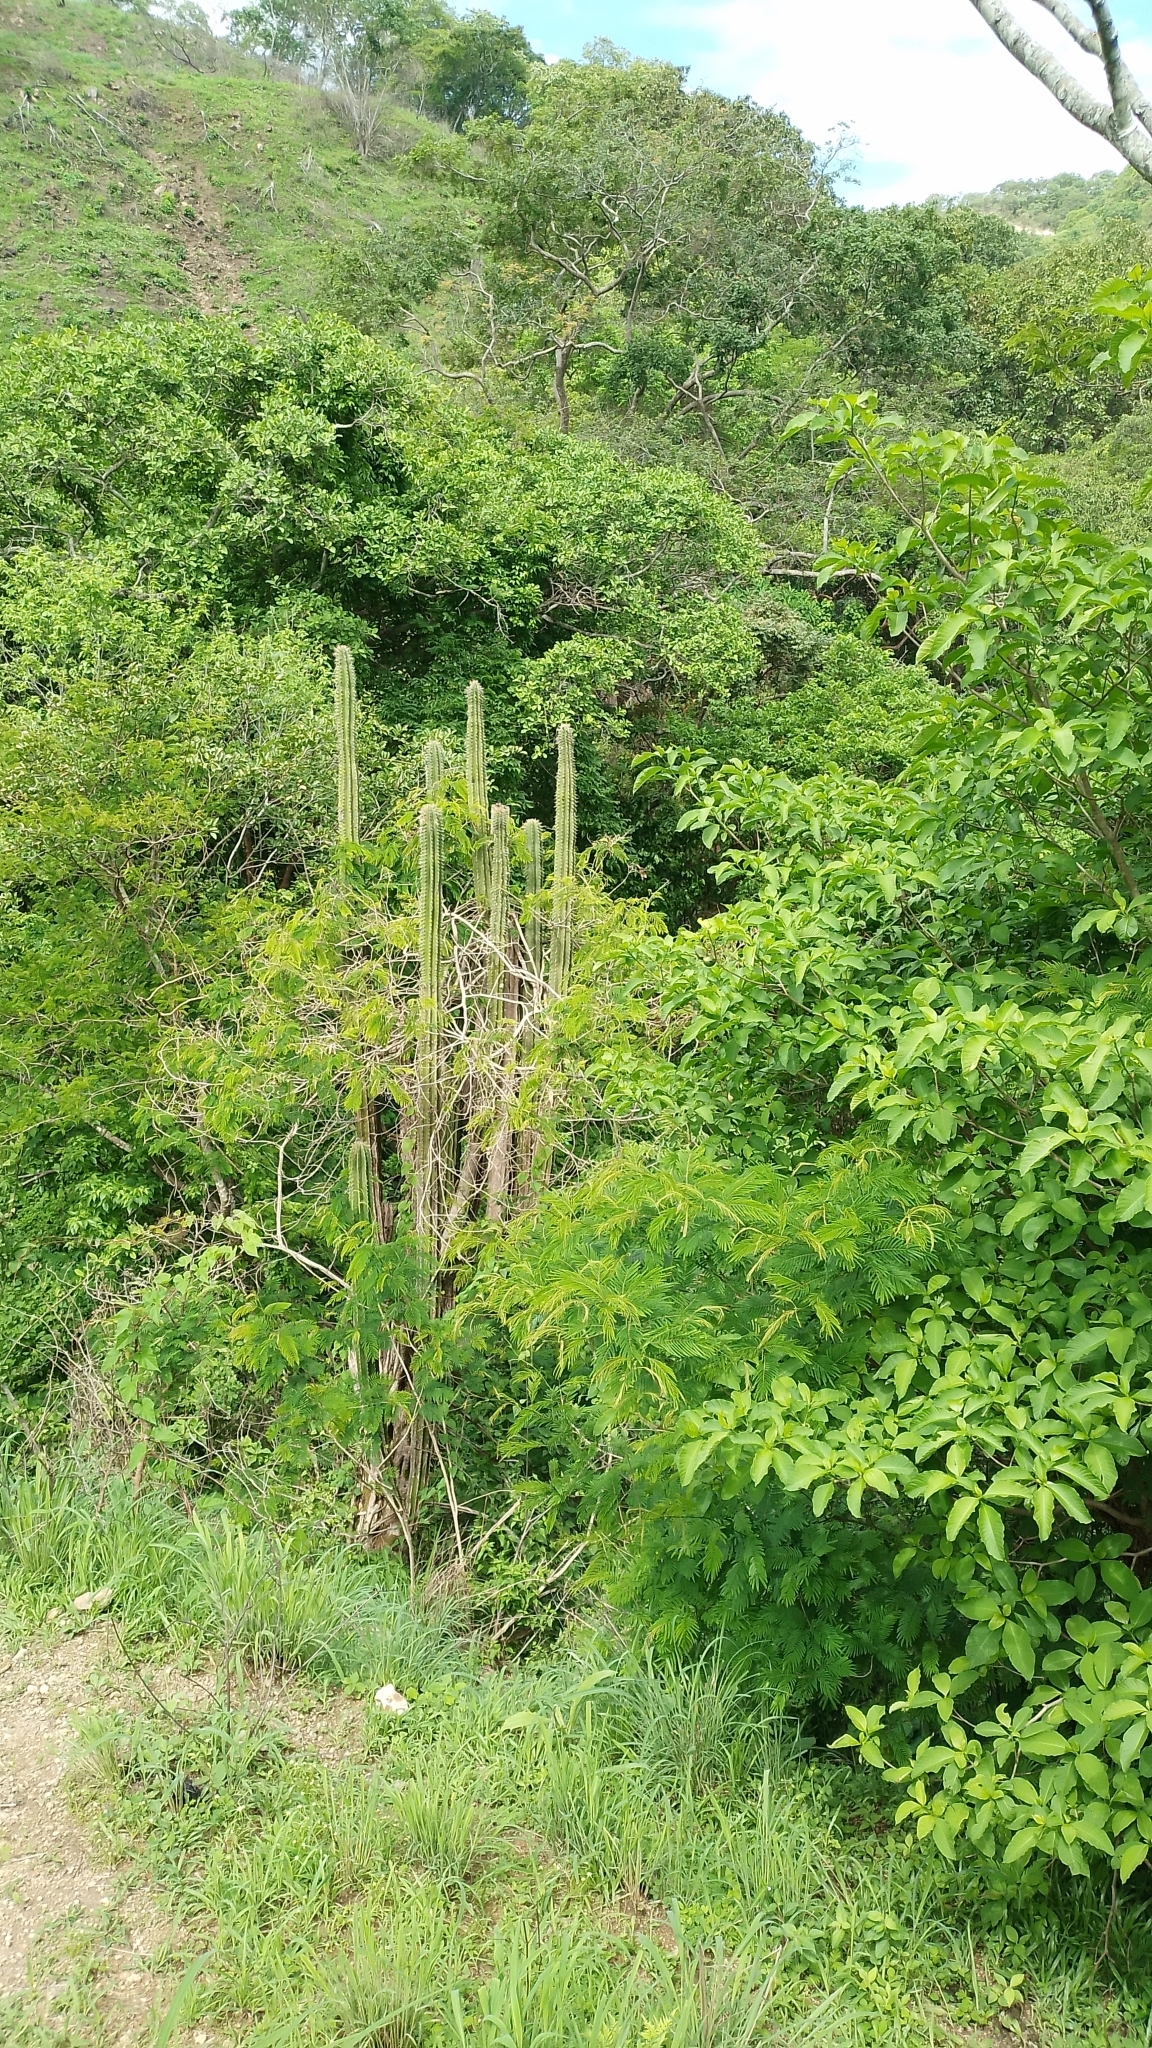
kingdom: Plantae
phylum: Tracheophyta
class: Magnoliopsida
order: Caryophyllales
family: Cactaceae
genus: Stenocereus
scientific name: Stenocereus queretaroensis
